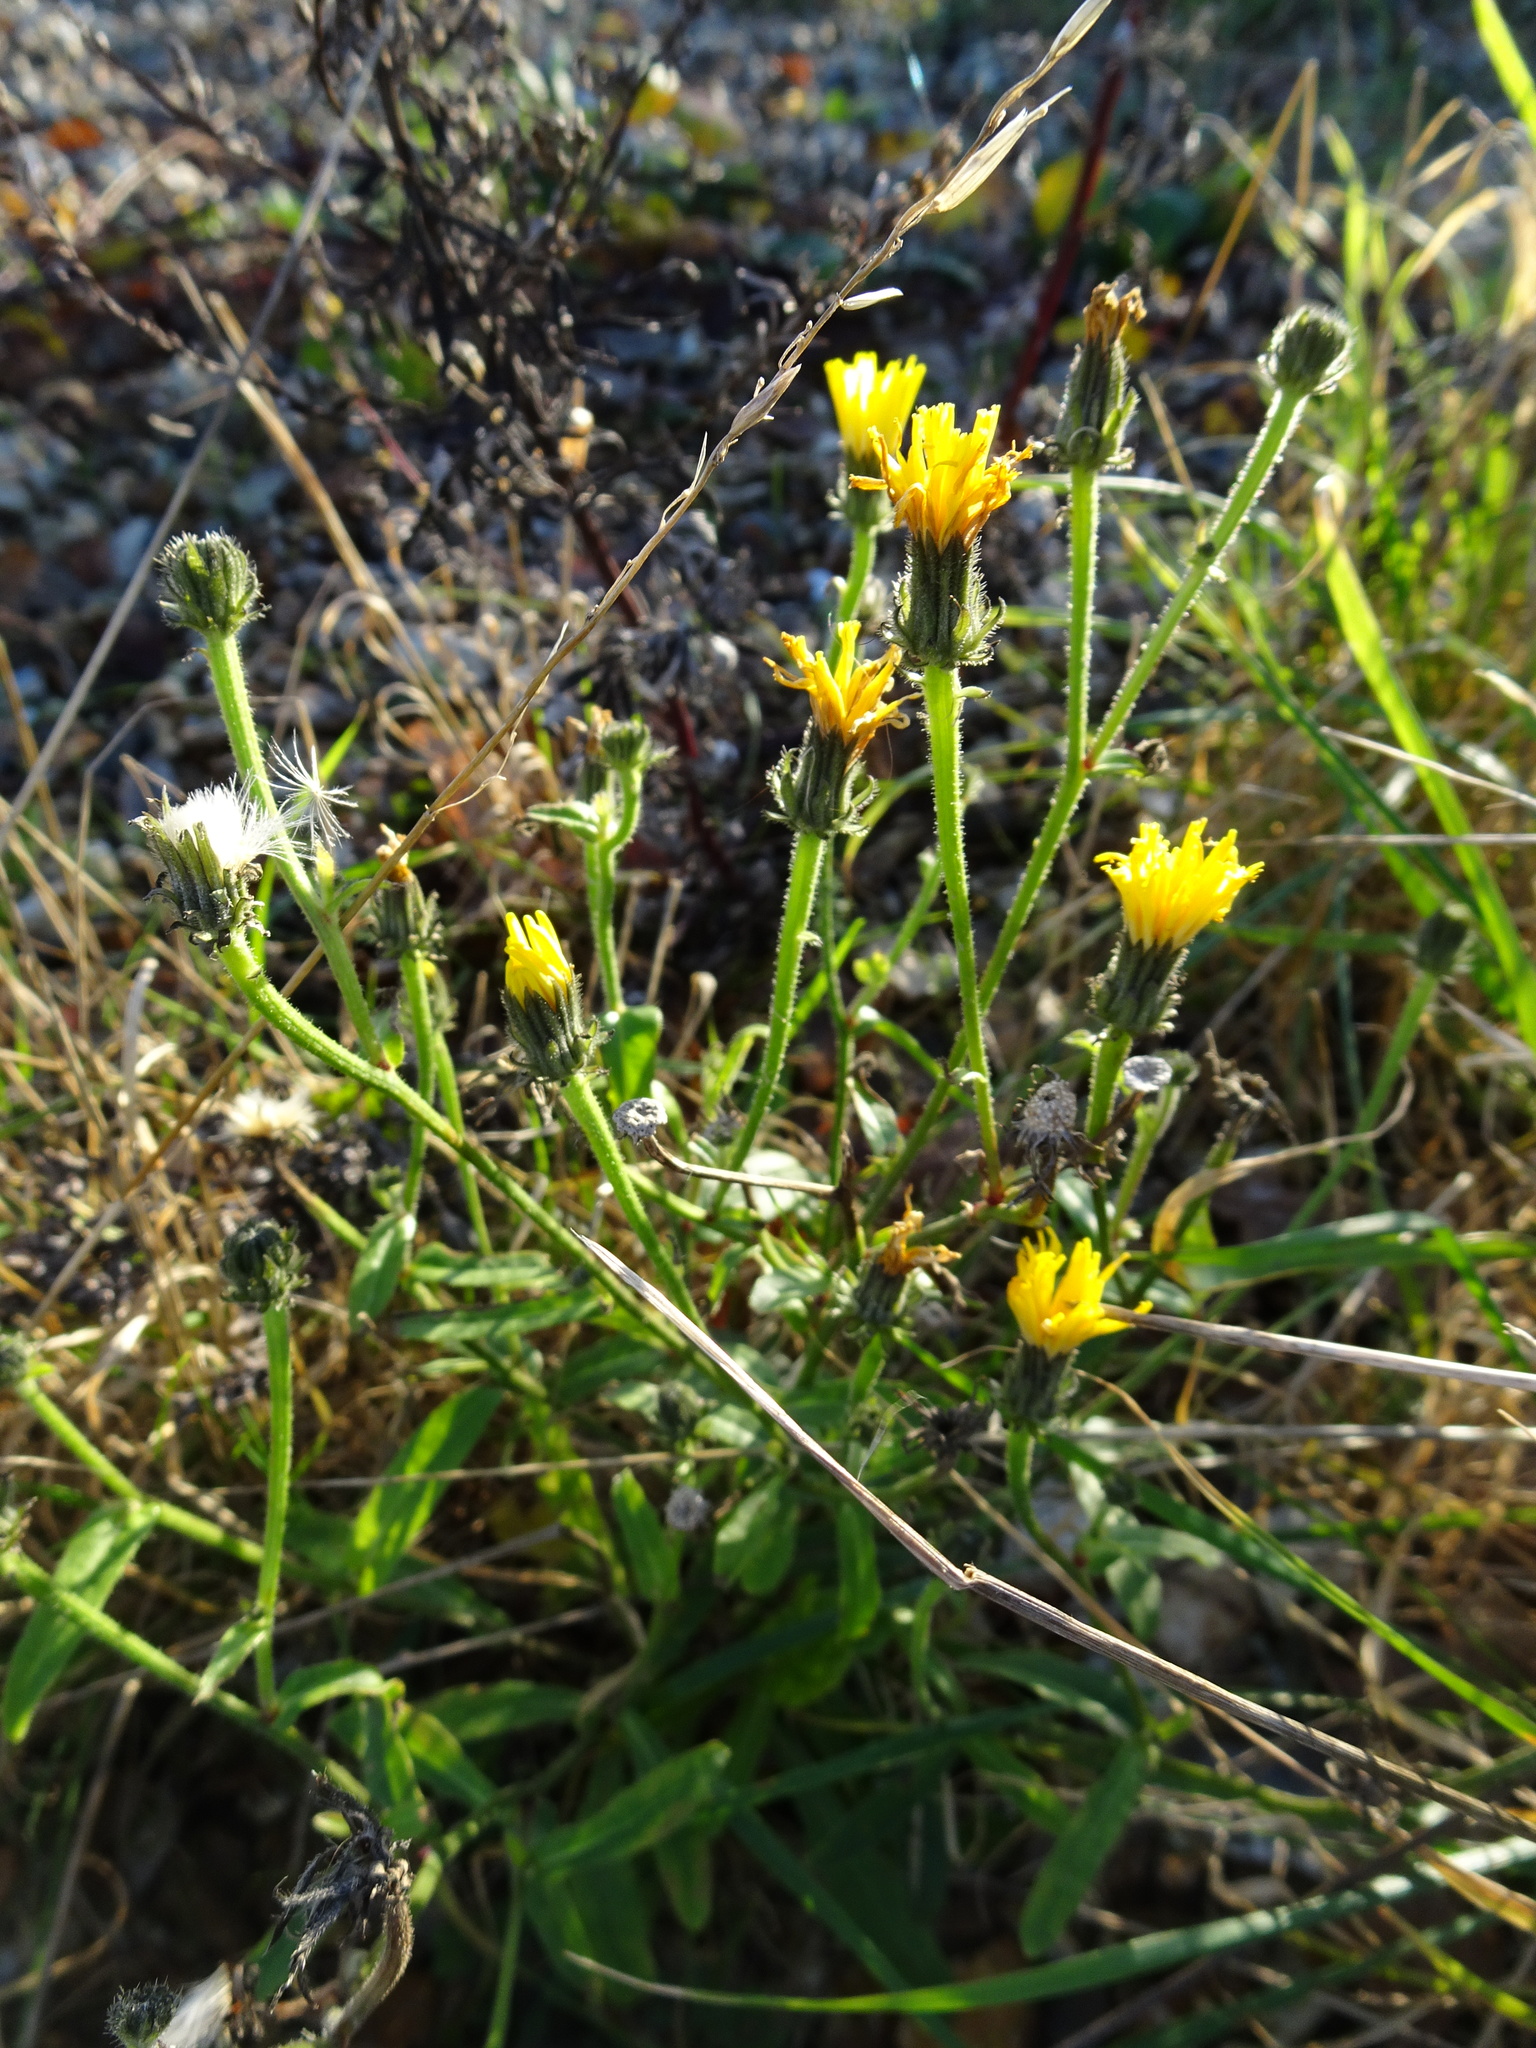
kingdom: Plantae
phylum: Tracheophyta
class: Magnoliopsida
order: Asterales
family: Asteraceae
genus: Picris
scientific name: Picris hieracioides
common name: Hawkweed oxtongue
